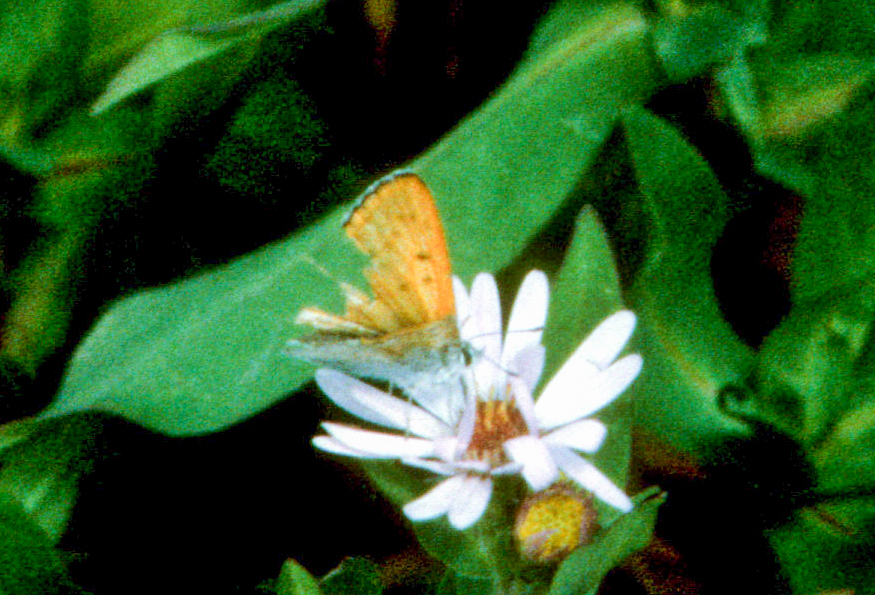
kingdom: Animalia
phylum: Arthropoda
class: Insecta
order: Lepidoptera
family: Lycaenidae
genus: Tharsalea
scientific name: Tharsalea rubidus
